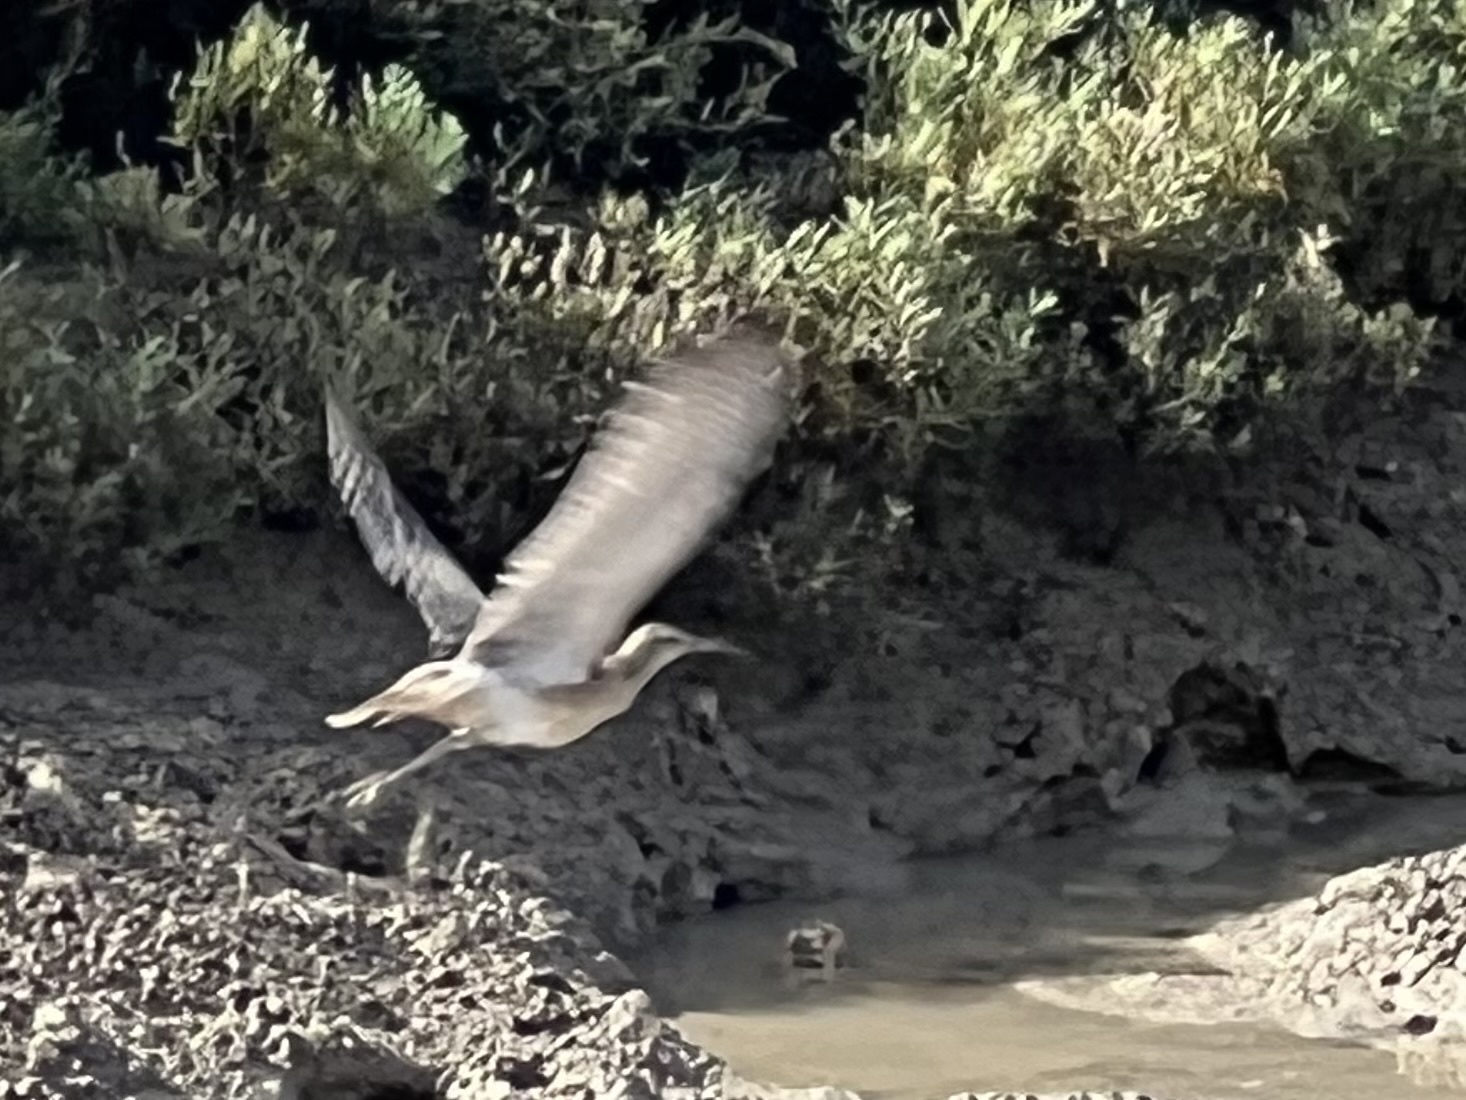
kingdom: Animalia
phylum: Chordata
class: Aves
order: Charadriiformes
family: Scolopacidae
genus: Numenius
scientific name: Numenius phaeopus
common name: Whimbrel
